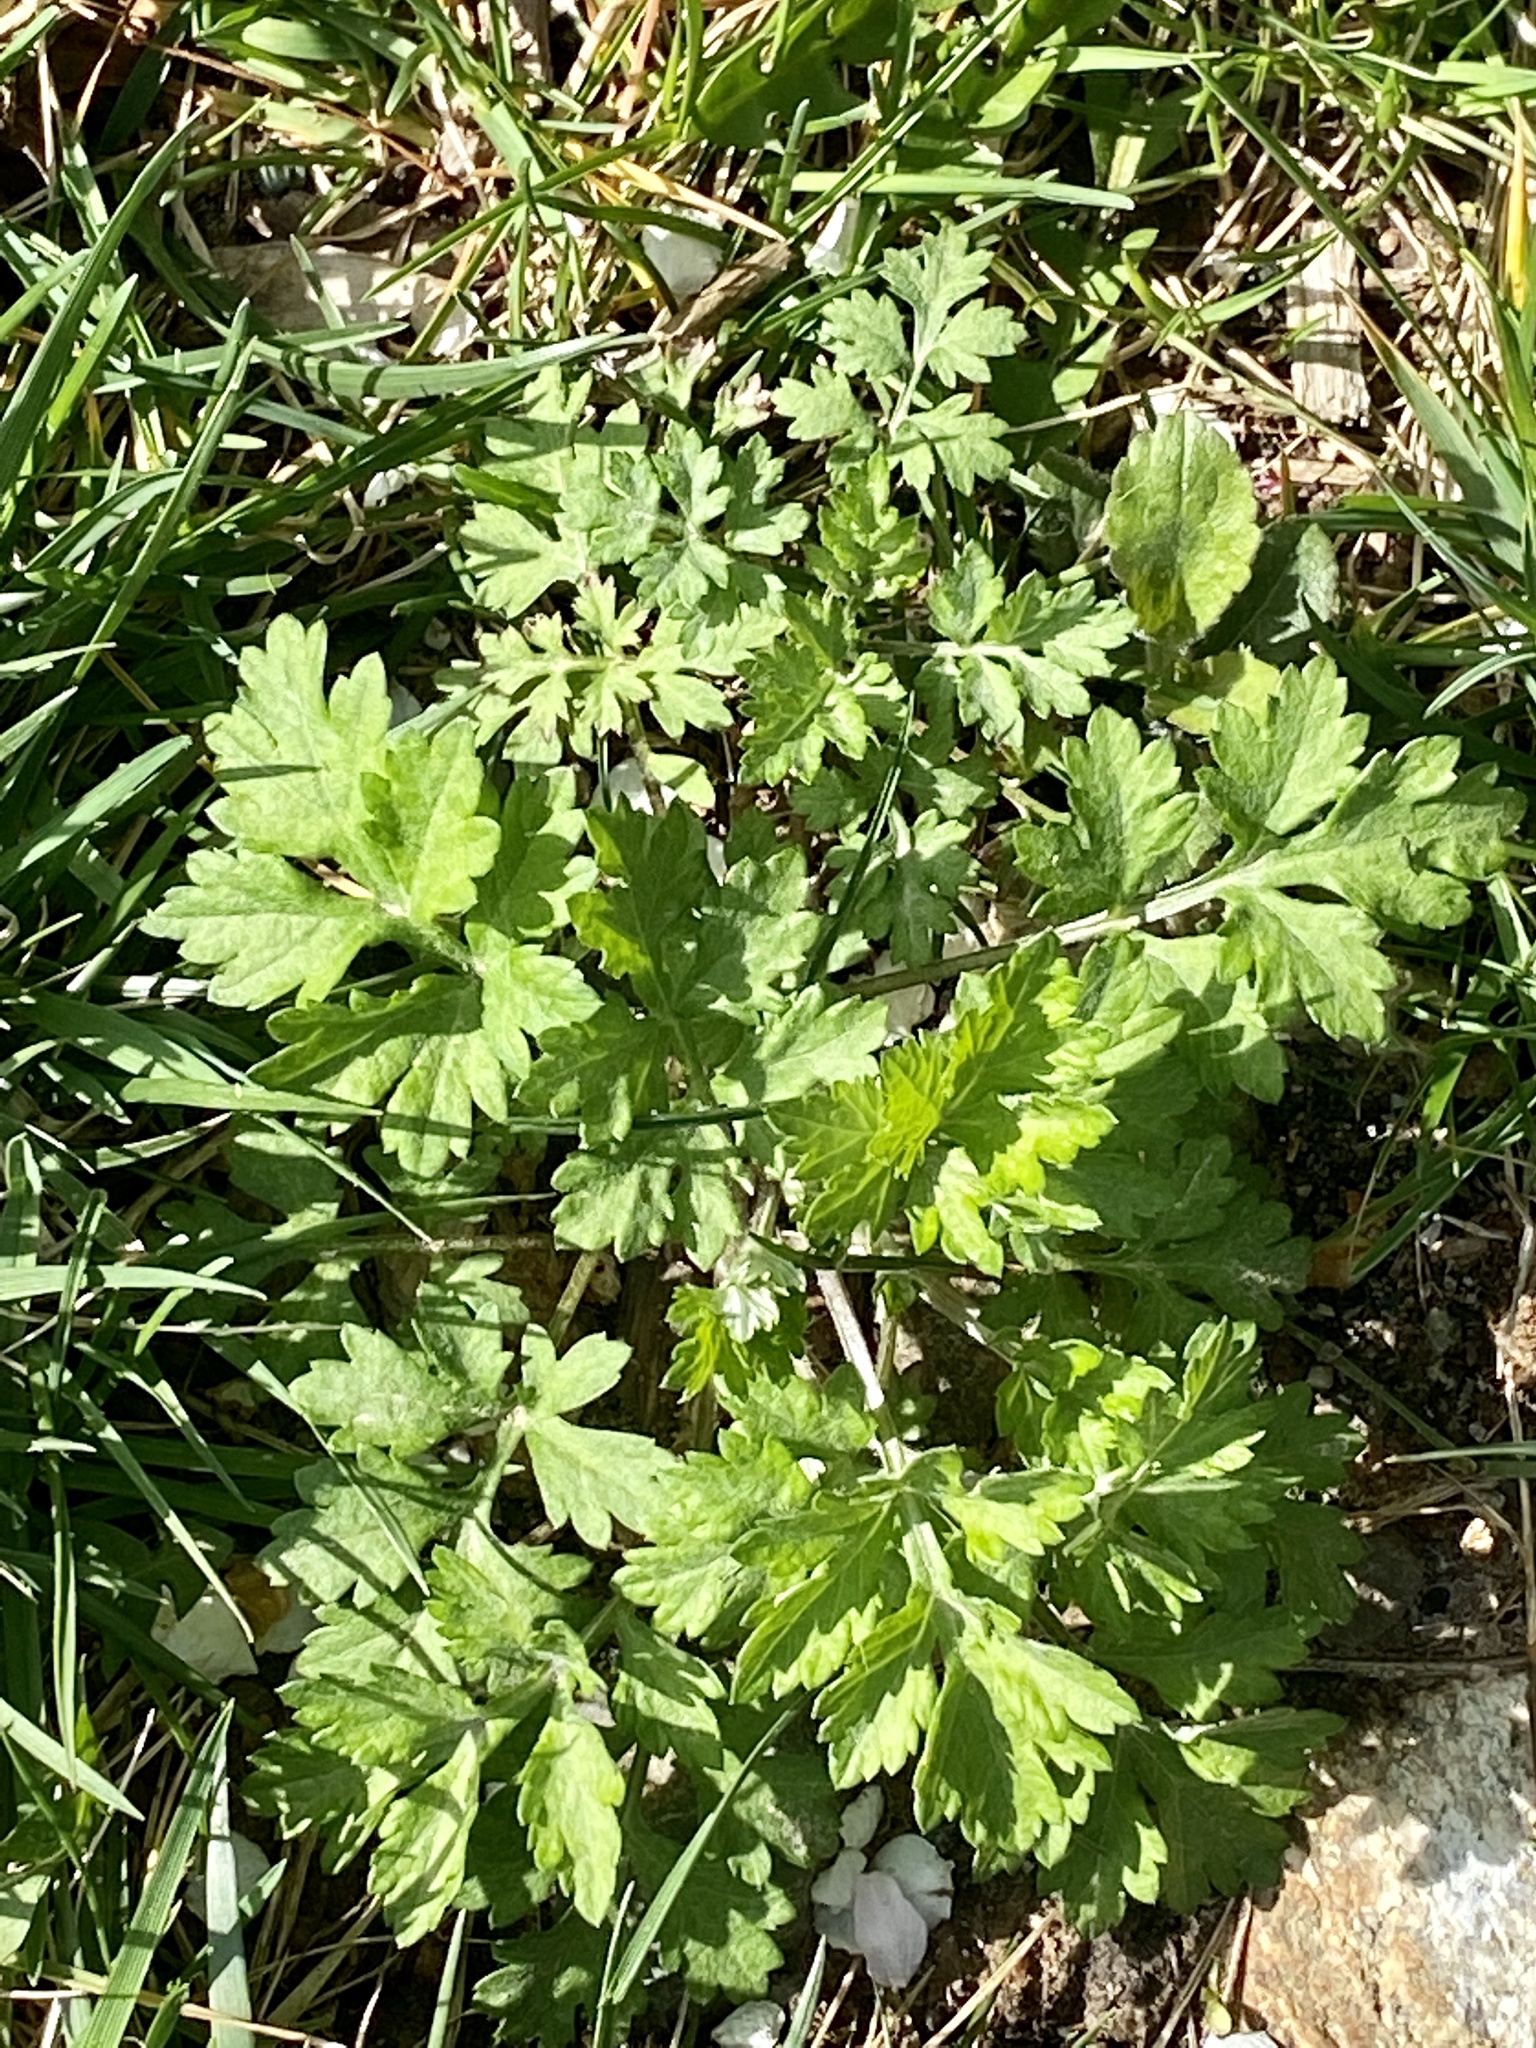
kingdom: Plantae
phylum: Tracheophyta
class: Magnoliopsida
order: Asterales
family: Asteraceae
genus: Artemisia
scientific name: Artemisia vulgaris
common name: Mugwort
